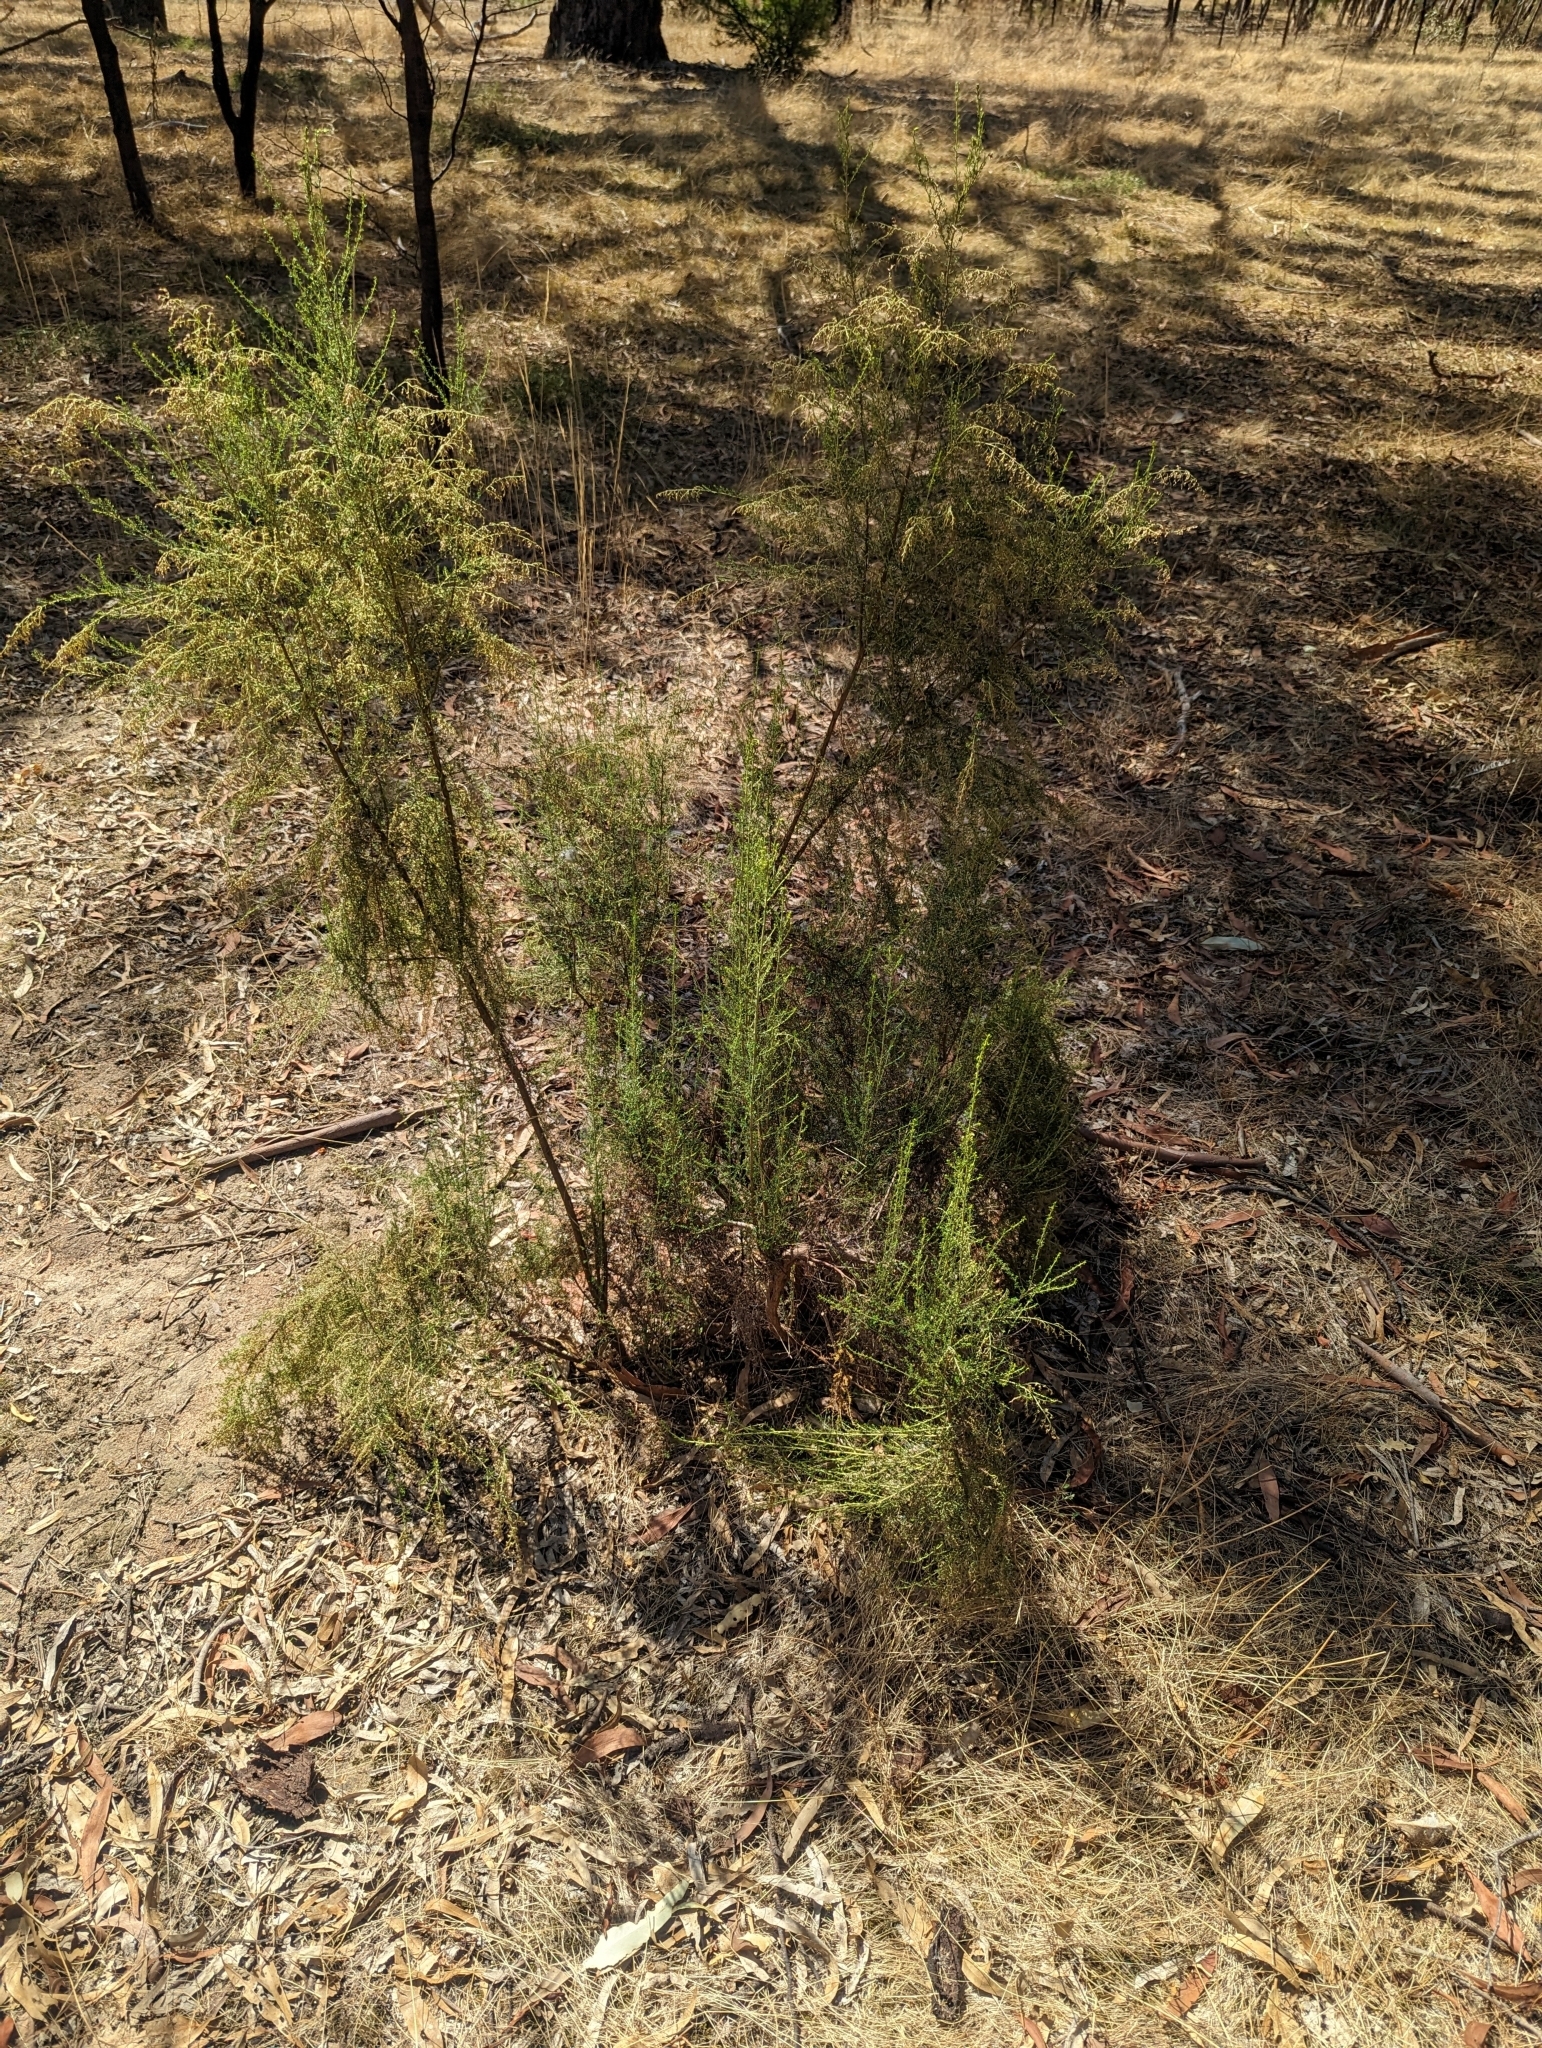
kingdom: Plantae
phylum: Tracheophyta
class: Magnoliopsida
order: Asterales
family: Asteraceae
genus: Cassinia
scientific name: Cassinia sifton
